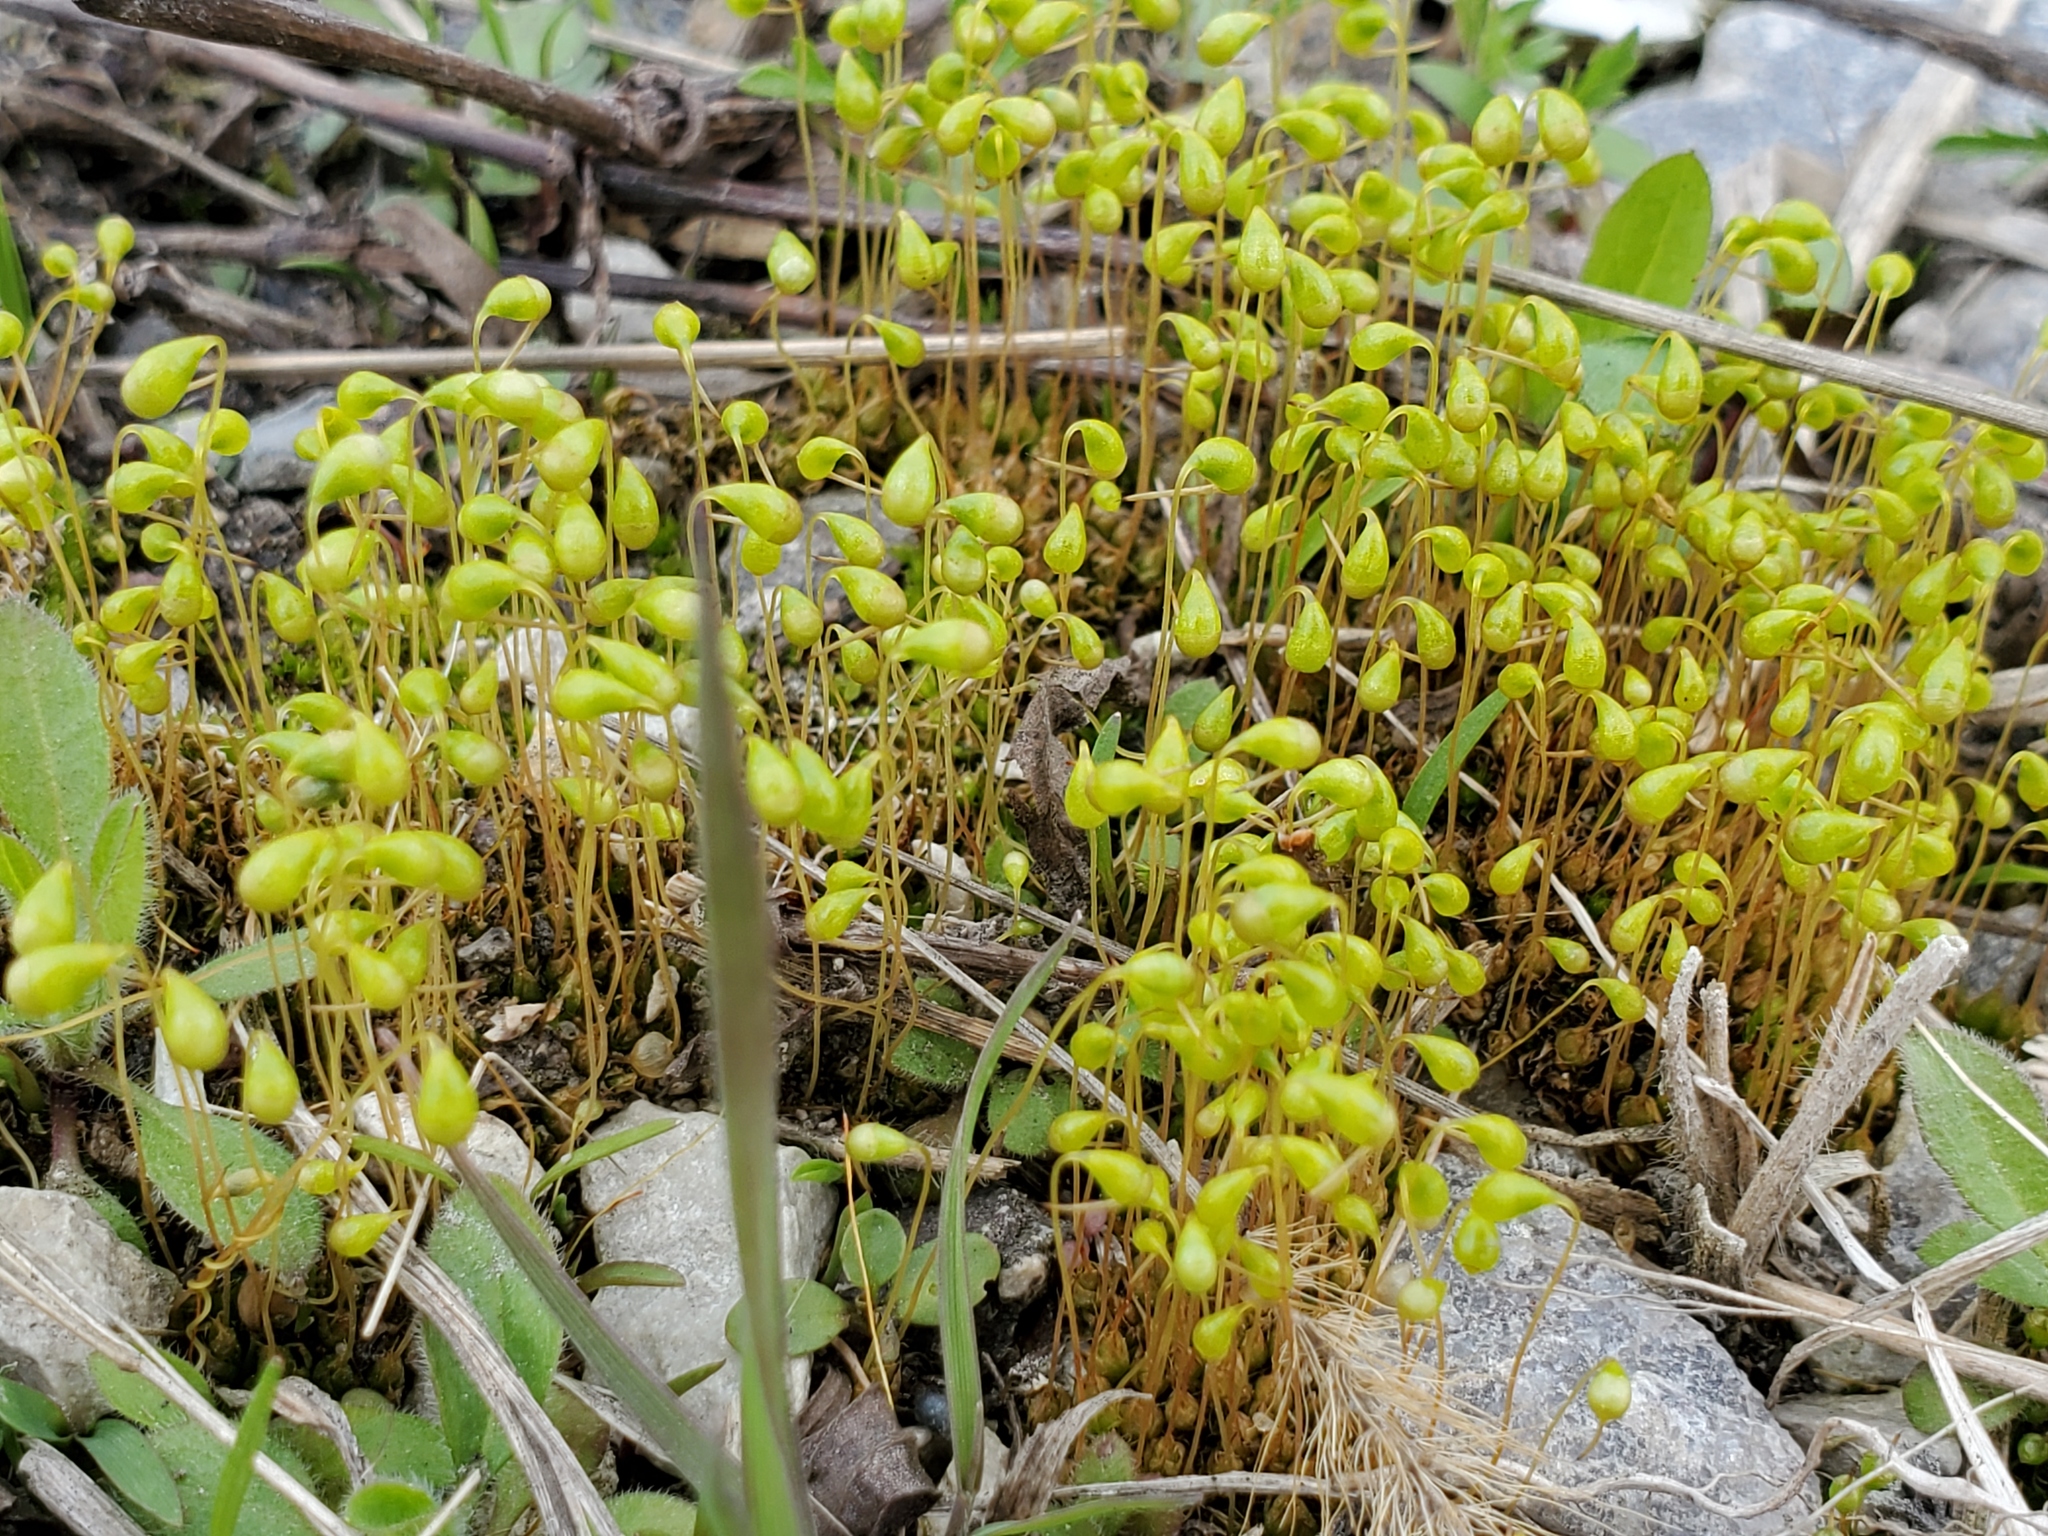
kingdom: Plantae
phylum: Bryophyta
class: Bryopsida
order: Funariales
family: Funariaceae
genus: Funaria
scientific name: Funaria hygrometrica
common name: Common cord moss
